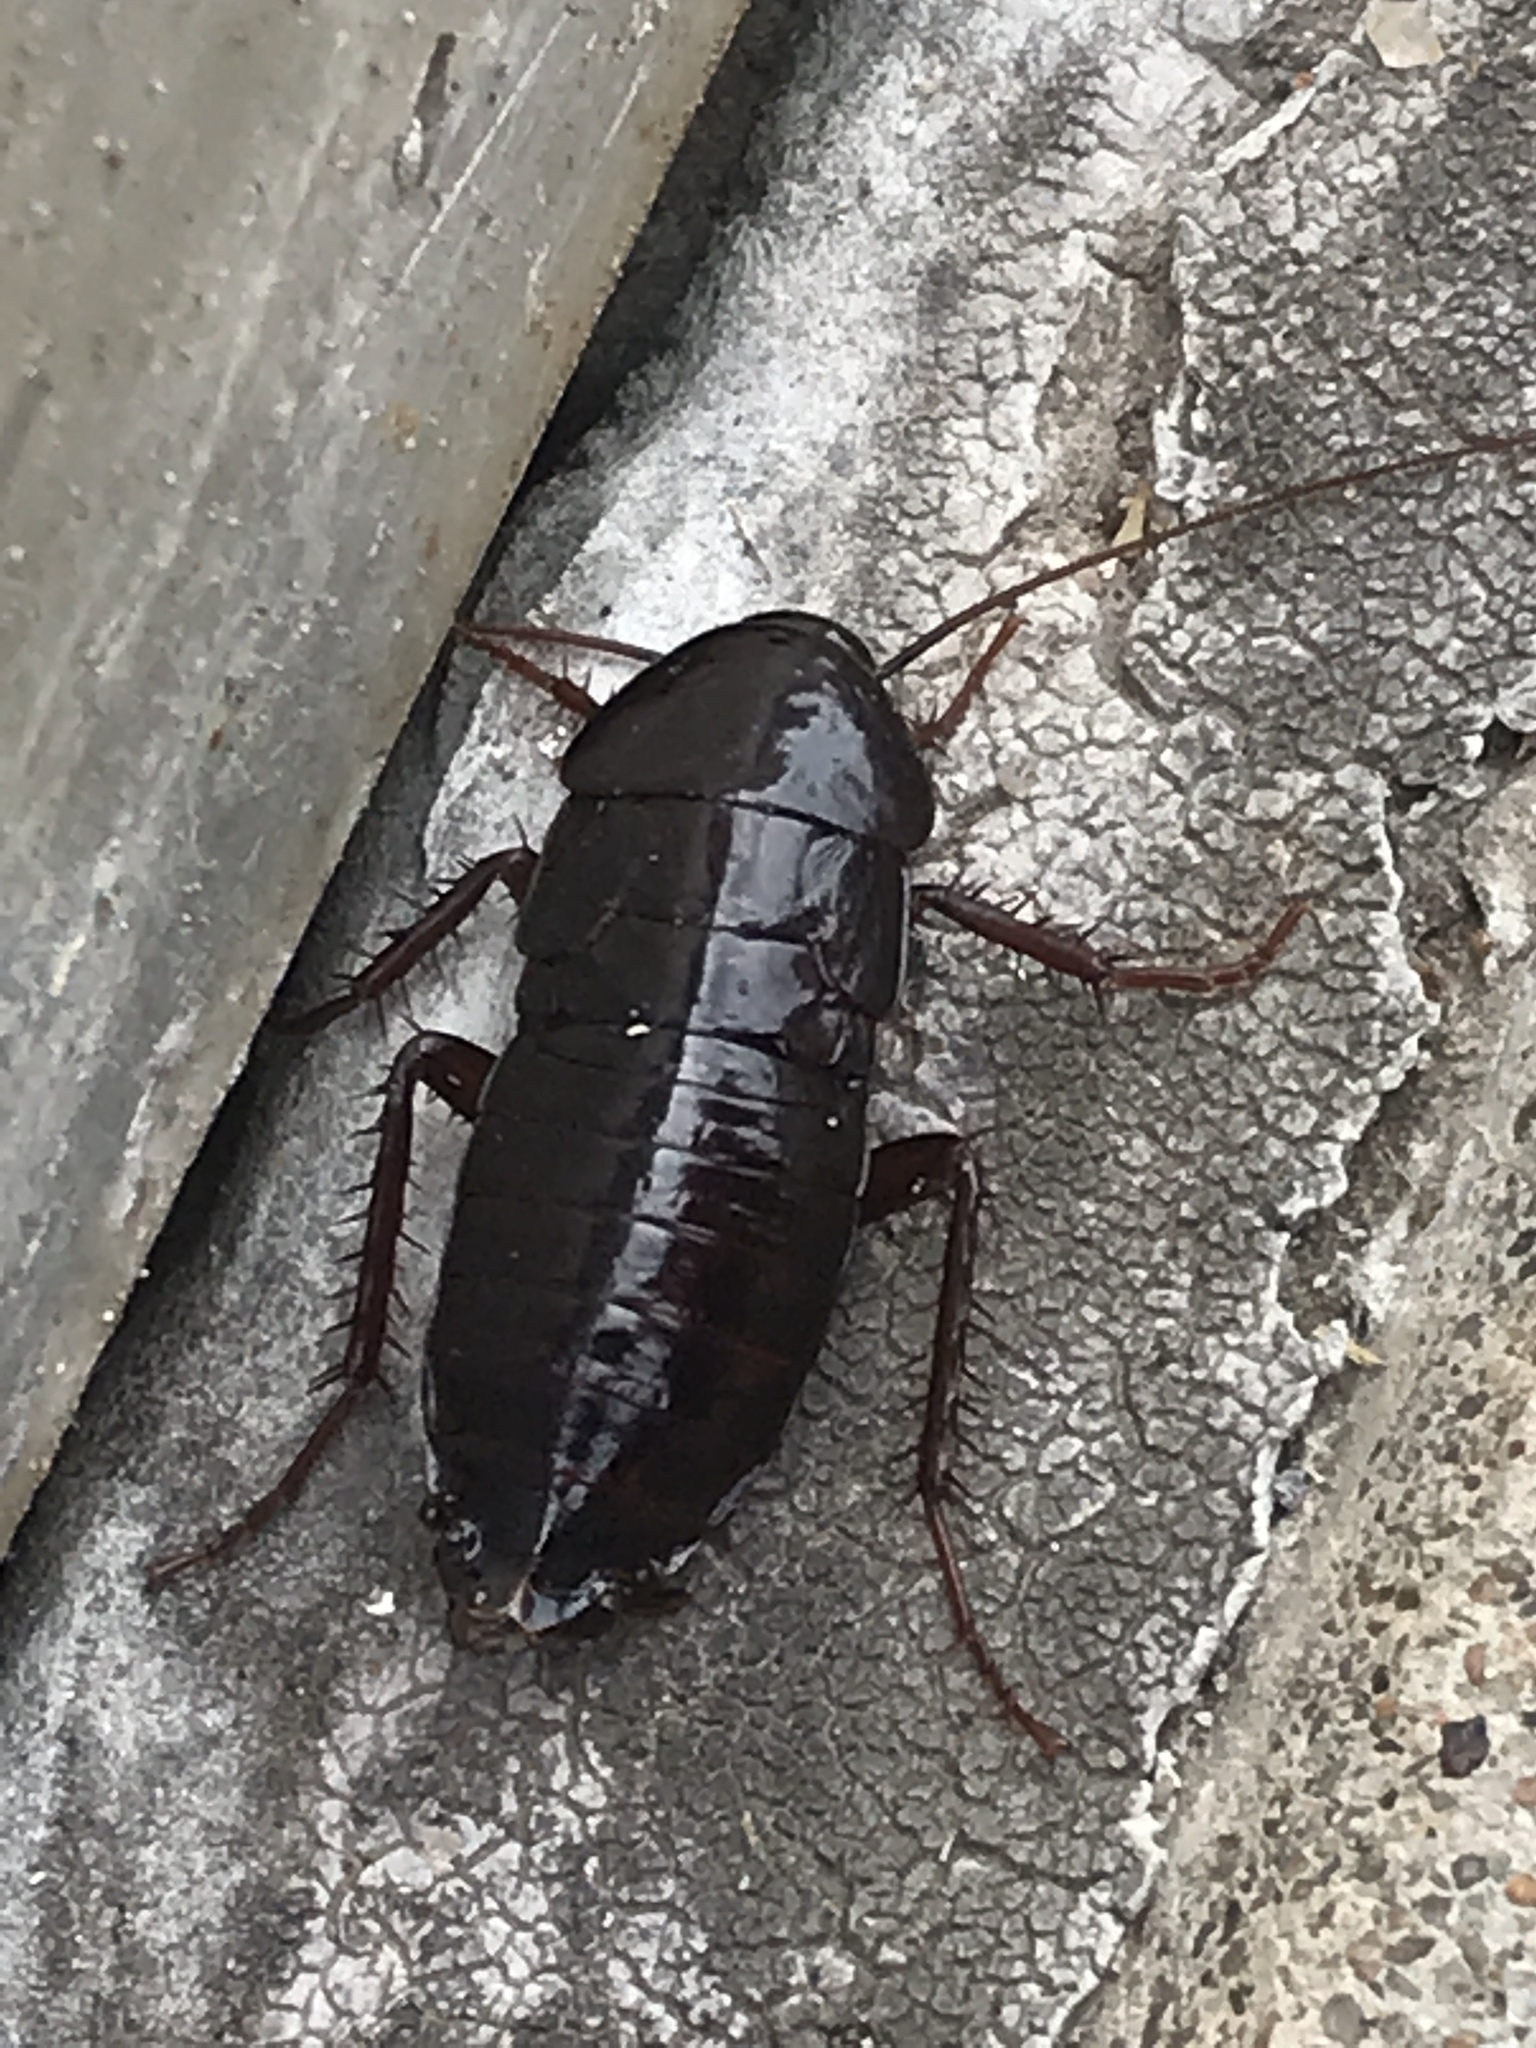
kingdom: Animalia
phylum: Arthropoda
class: Insecta
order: Blattodea
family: Blattidae
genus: Blatta
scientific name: Blatta orientalis
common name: Oriental cockroach
